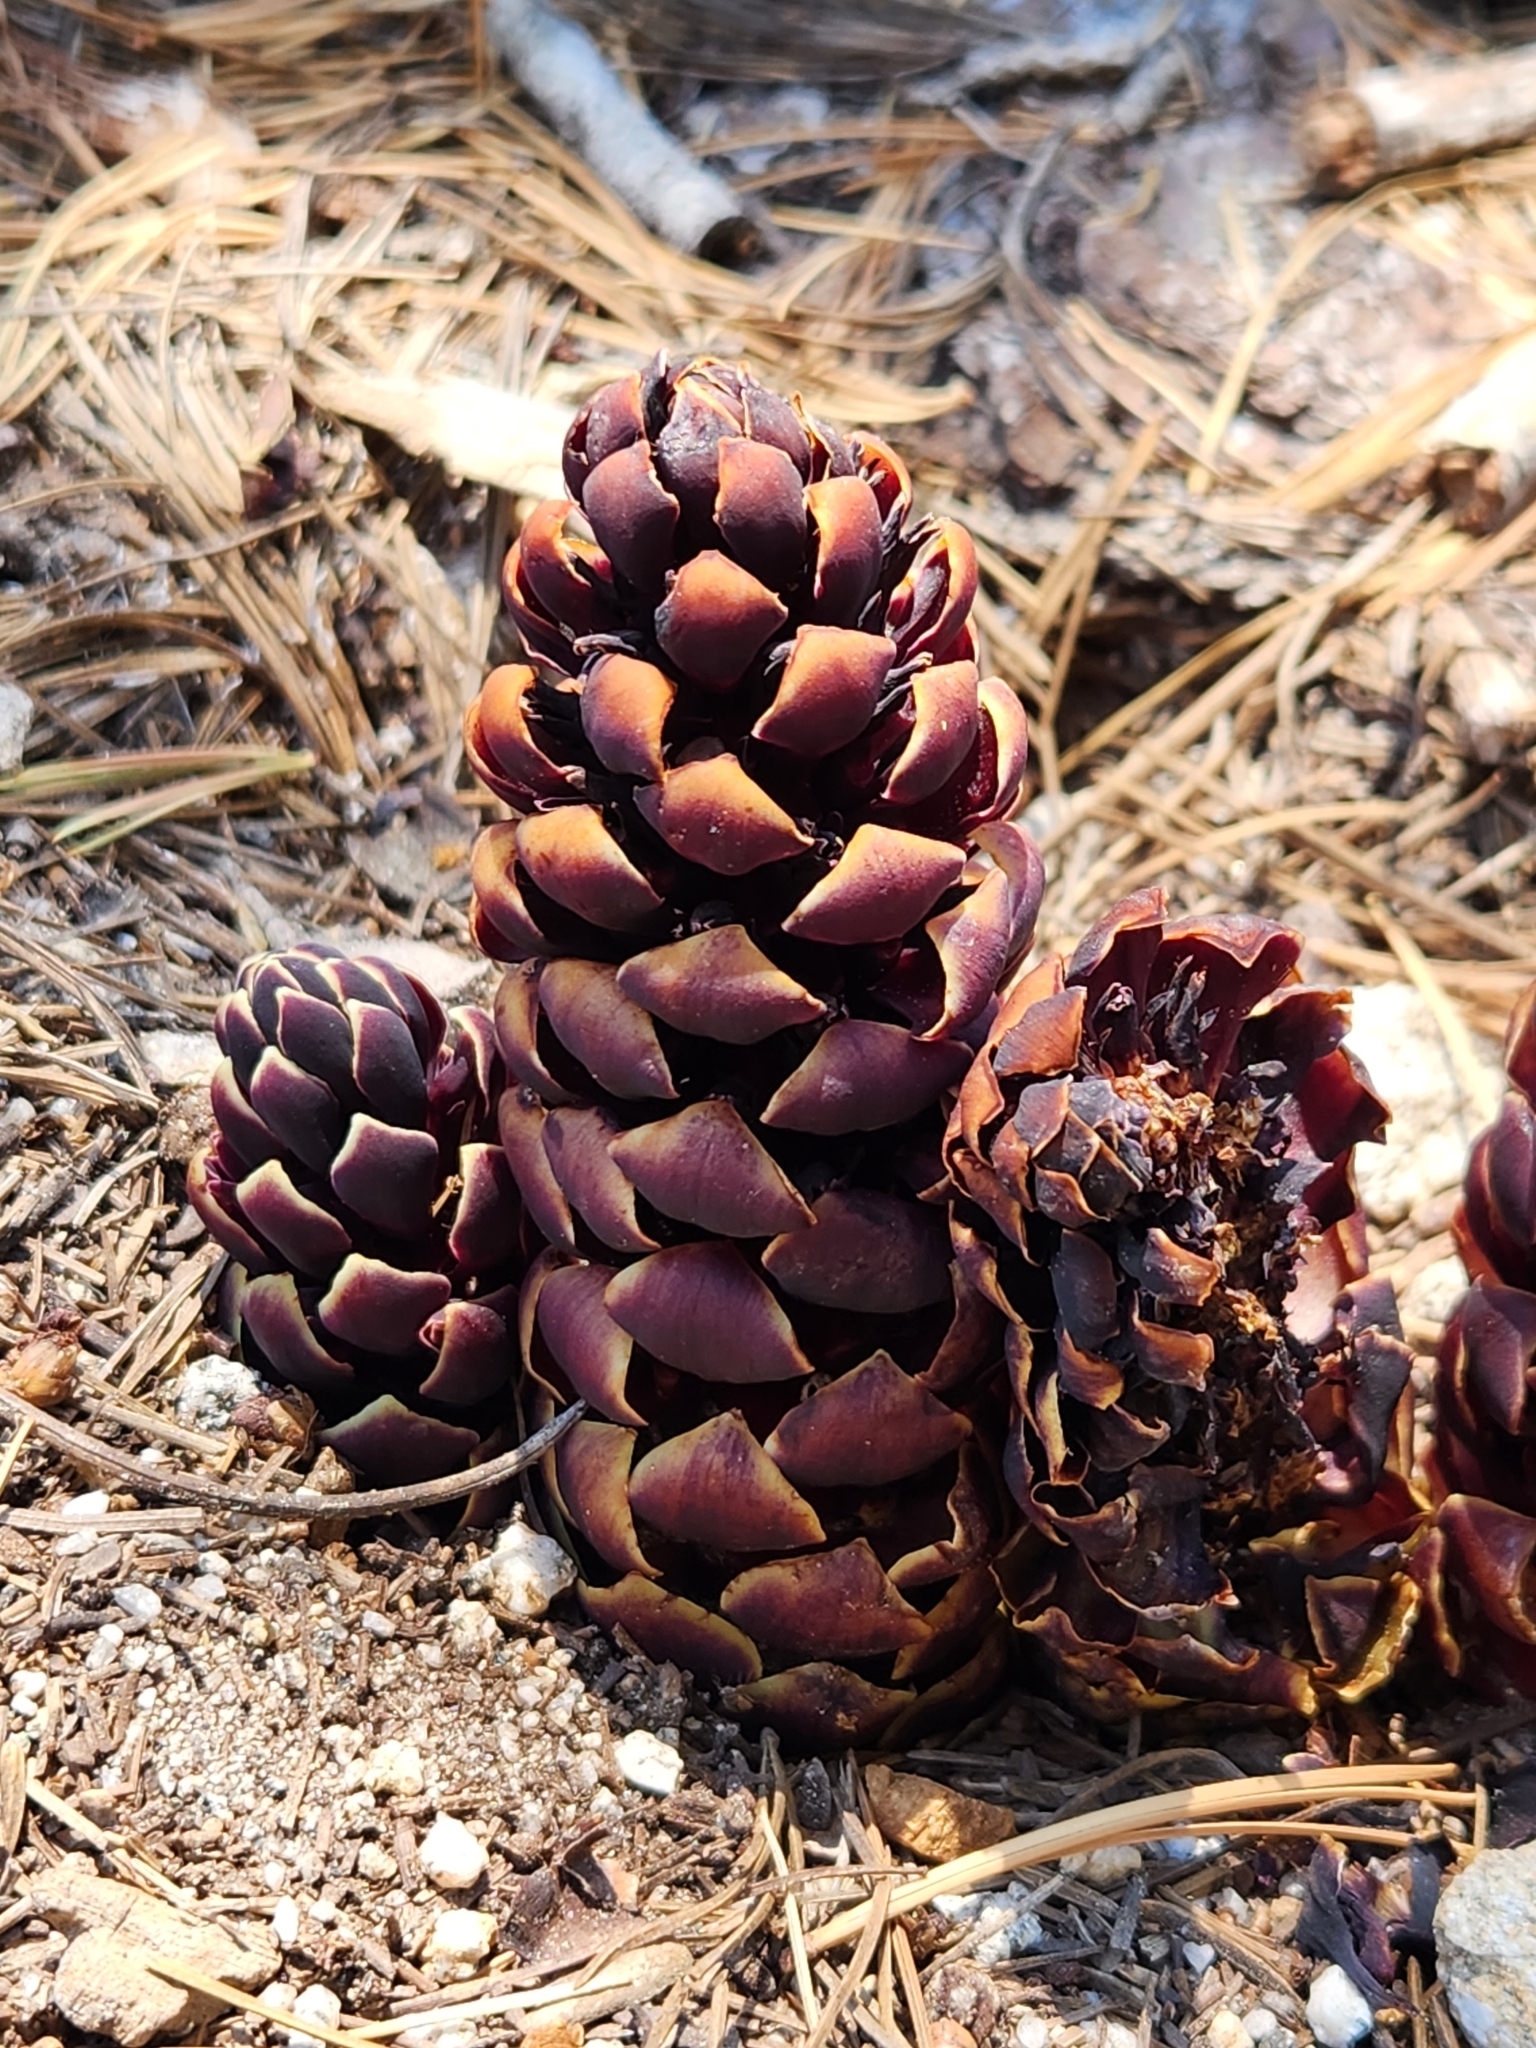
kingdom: Plantae
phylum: Tracheophyta
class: Magnoliopsida
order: Lamiales
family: Orobanchaceae
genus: Kopsiopsis
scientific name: Kopsiopsis strobilacea
